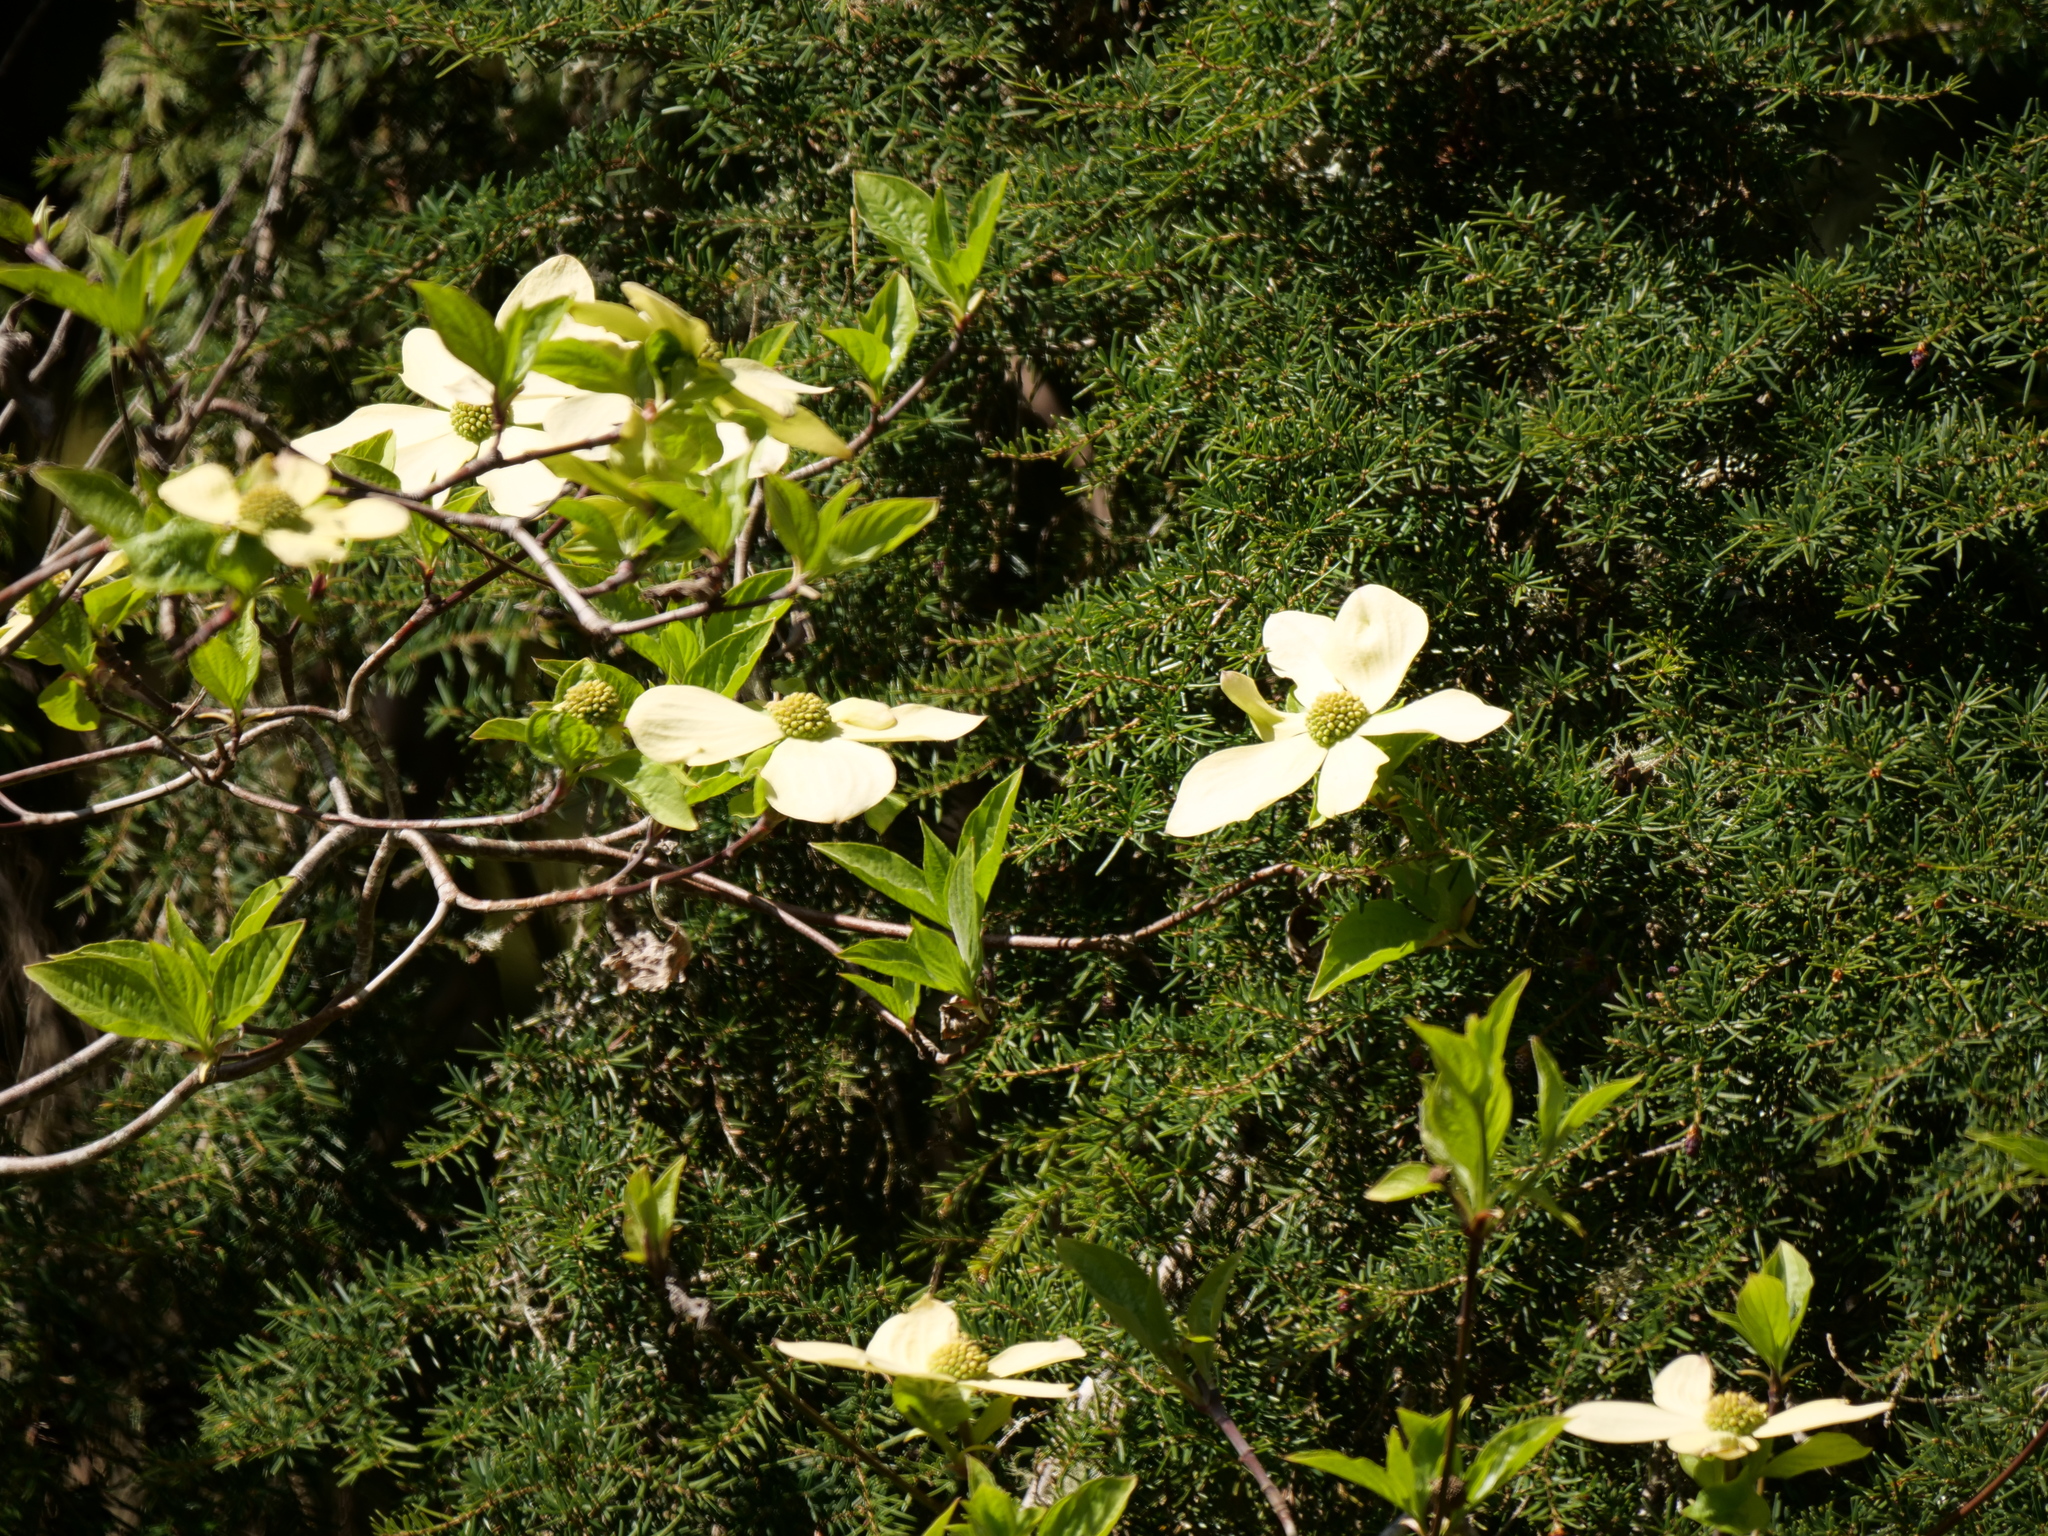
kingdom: Plantae
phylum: Tracheophyta
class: Magnoliopsida
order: Cornales
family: Cornaceae
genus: Cornus
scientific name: Cornus nuttallii
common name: Pacific dogwood
